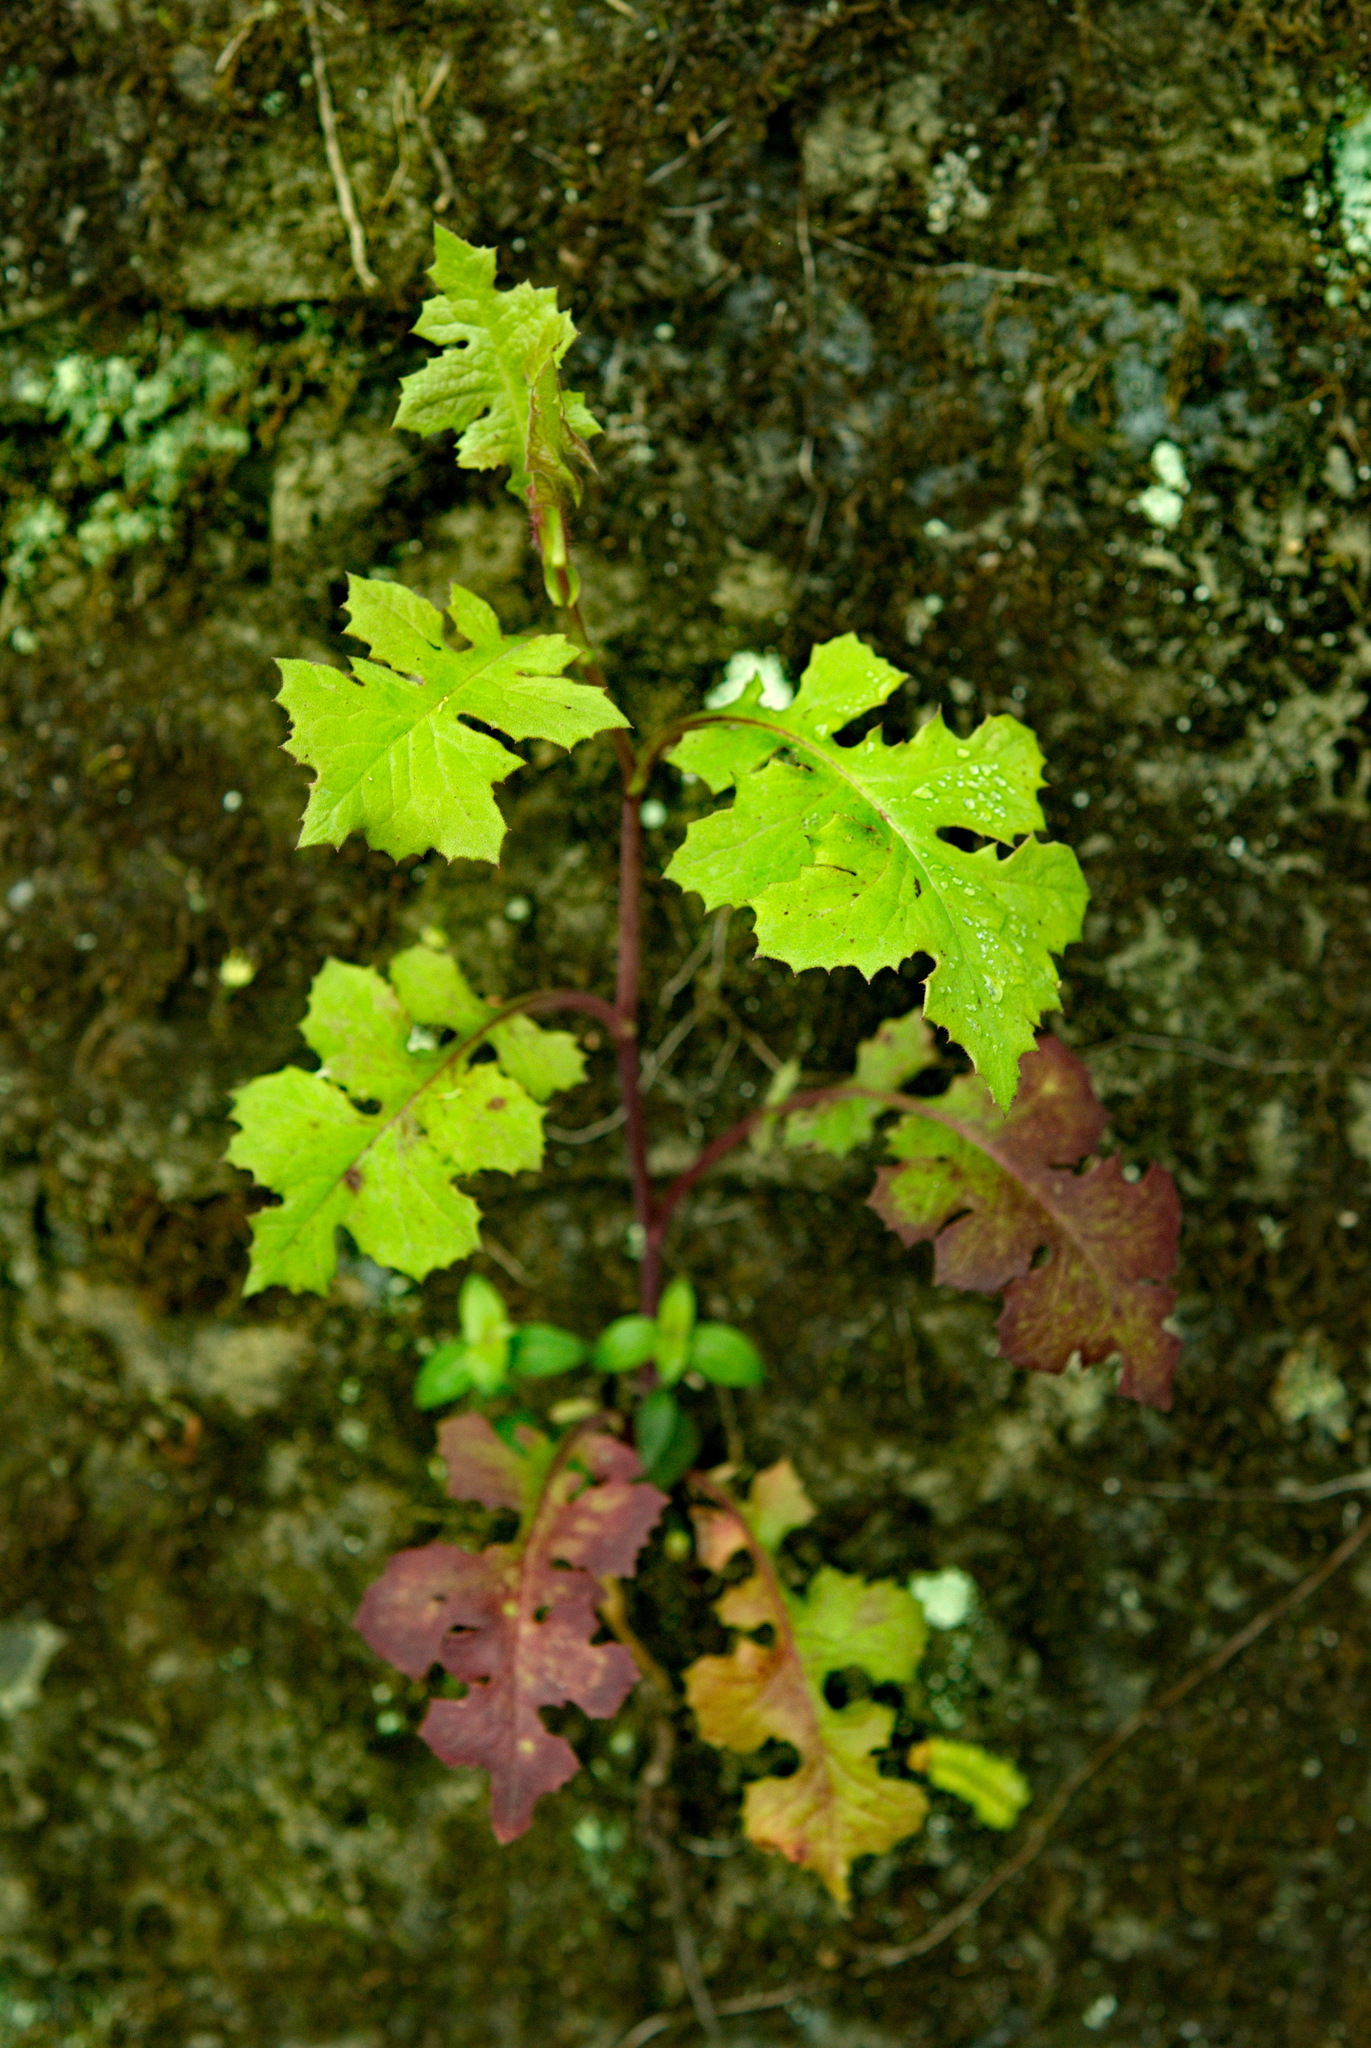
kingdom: Plantae
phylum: Tracheophyta
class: Magnoliopsida
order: Asterales
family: Asteraceae
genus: Blumea
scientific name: Blumea sinuata
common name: Cutleaf false oxtongue
